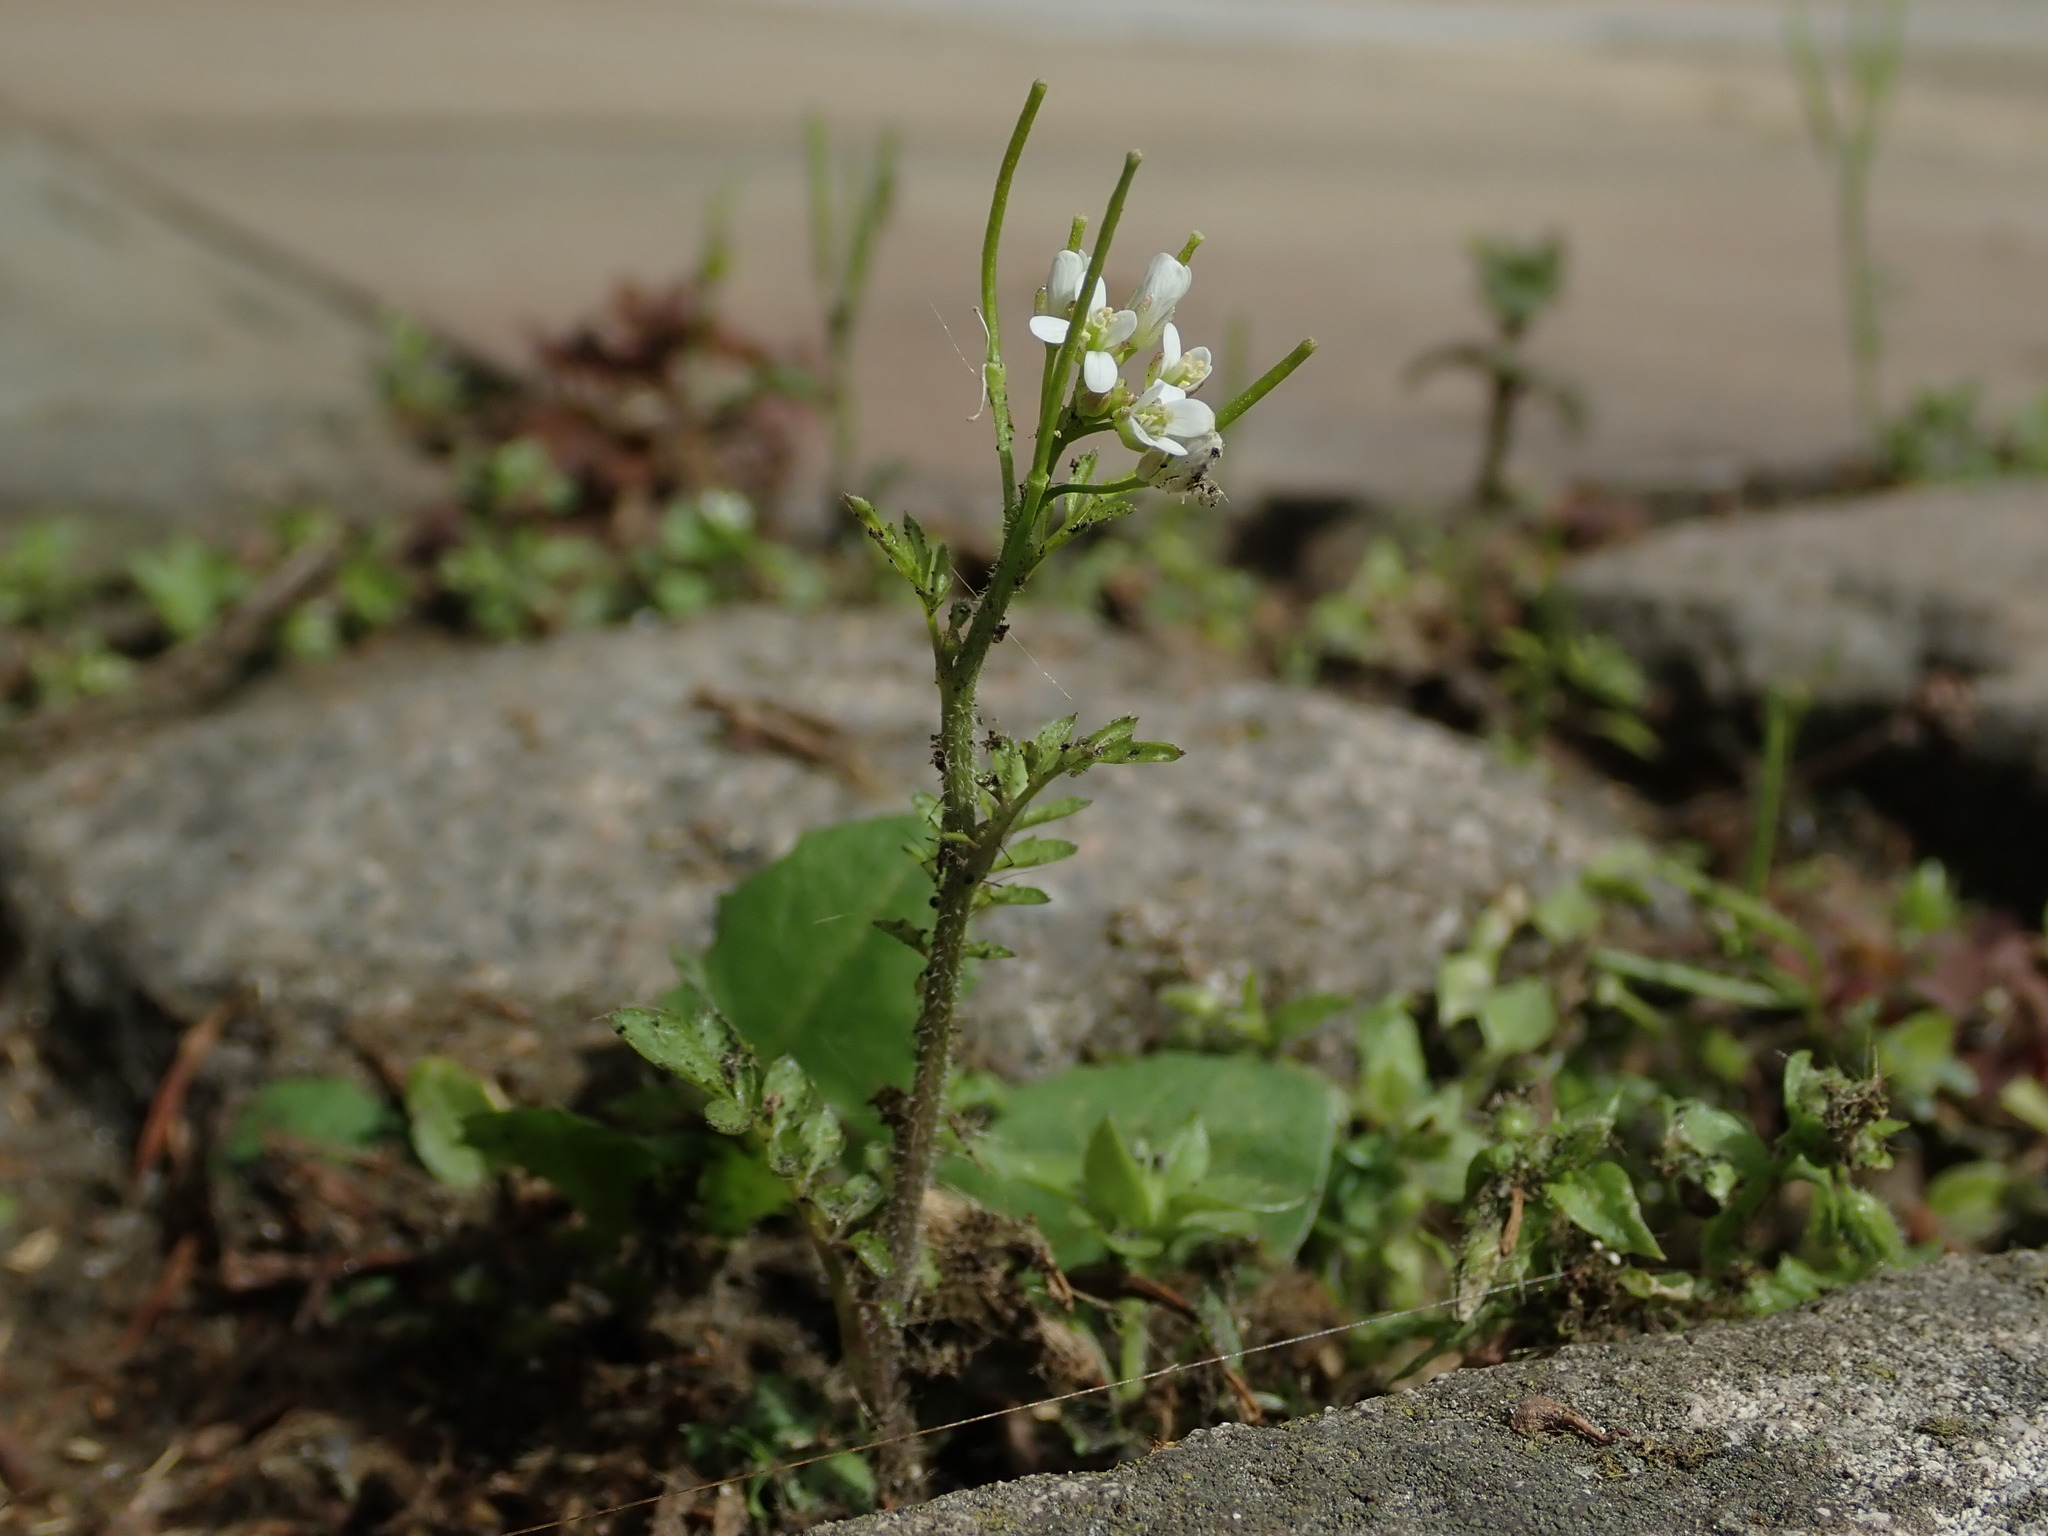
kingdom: Plantae
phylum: Tracheophyta
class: Magnoliopsida
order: Brassicales
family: Brassicaceae
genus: Cardamine
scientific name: Cardamine flexuosa
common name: Woodland bittercress
